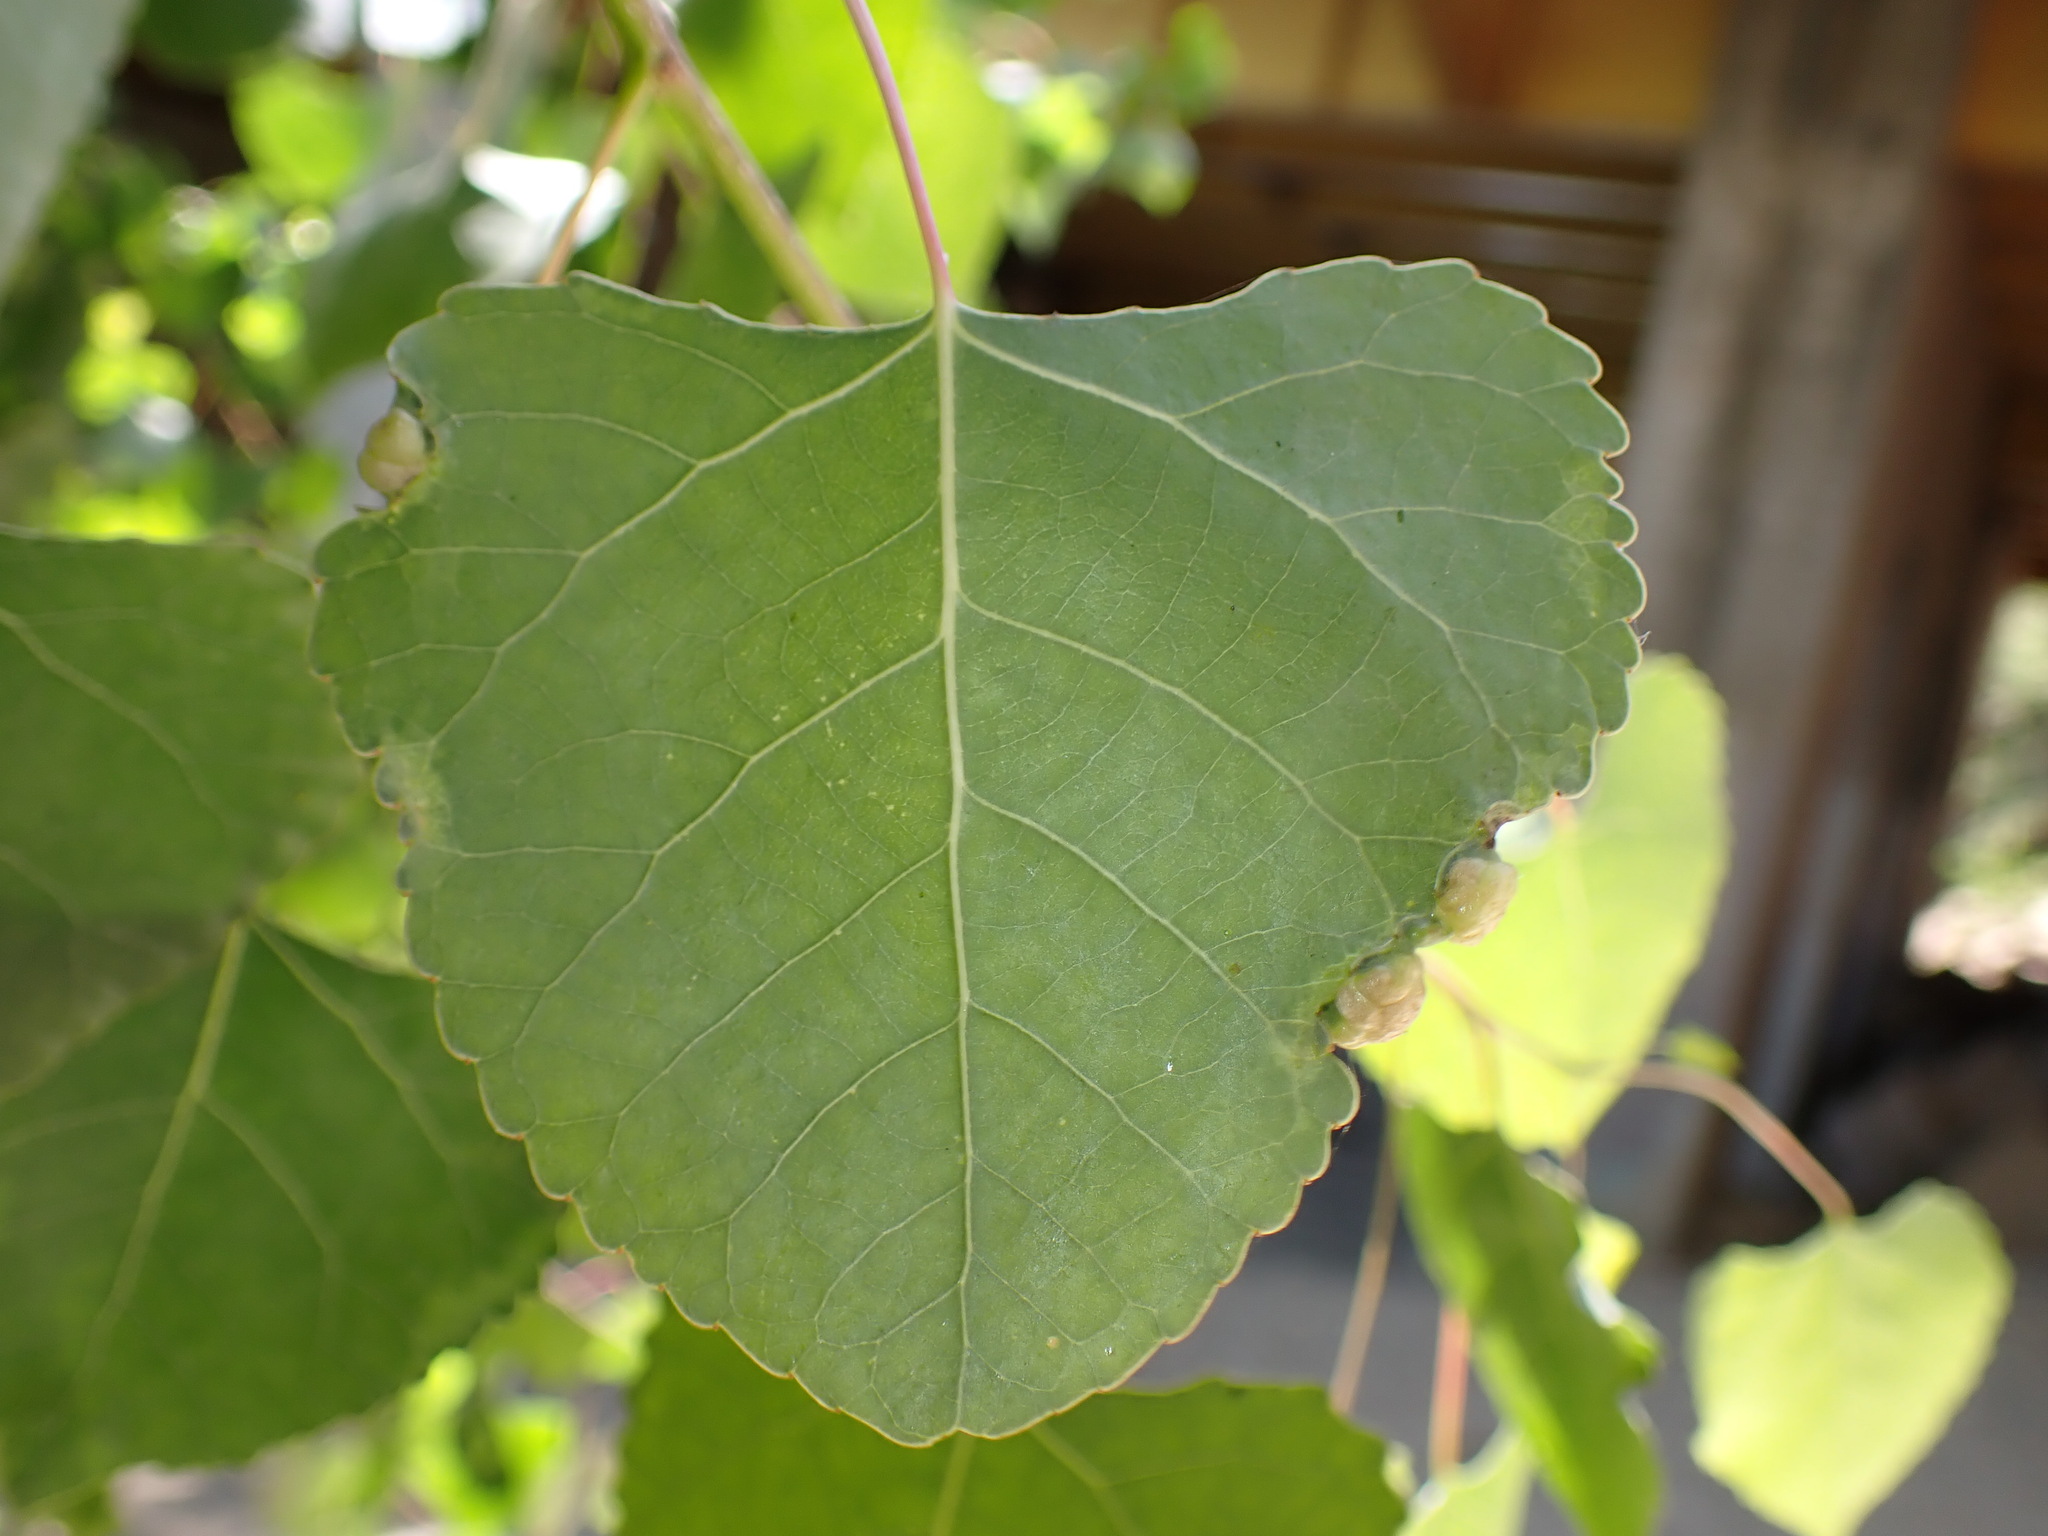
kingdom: Plantae
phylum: Tracheophyta
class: Magnoliopsida
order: Malpighiales
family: Salicaceae
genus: Populus
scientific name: Populus fremontii
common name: Fremont's cottonwood
